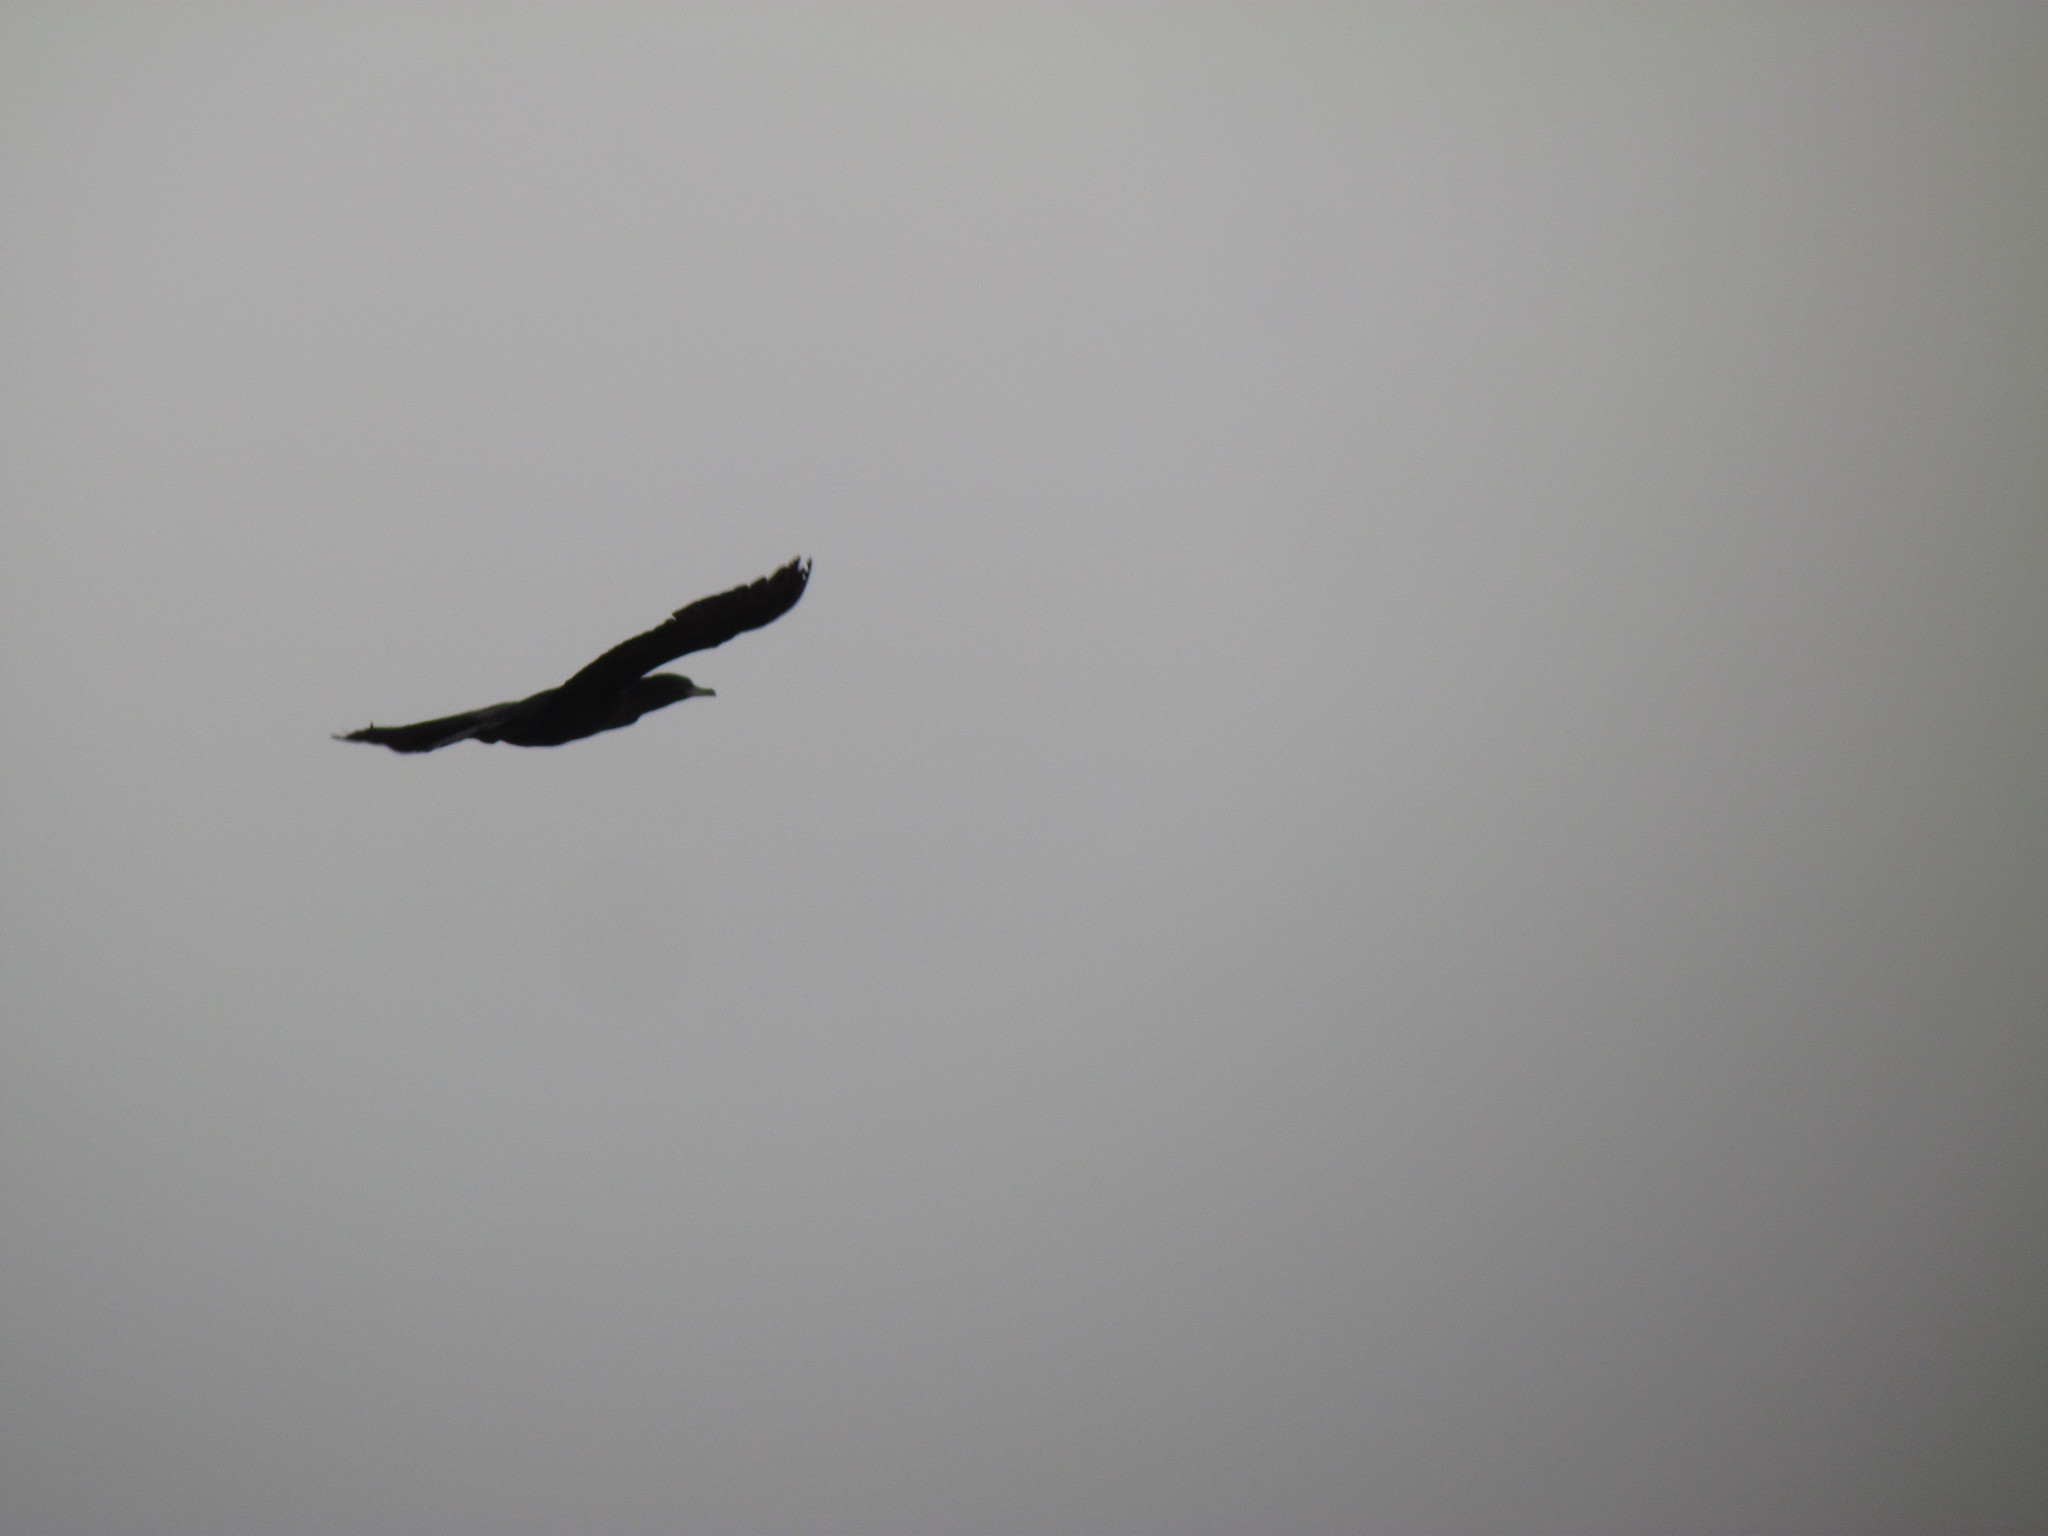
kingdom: Animalia
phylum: Chordata
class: Aves
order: Suliformes
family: Phalacrocoracidae
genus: Phalacrocorax
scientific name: Phalacrocorax brasilianus
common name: Neotropic cormorant
